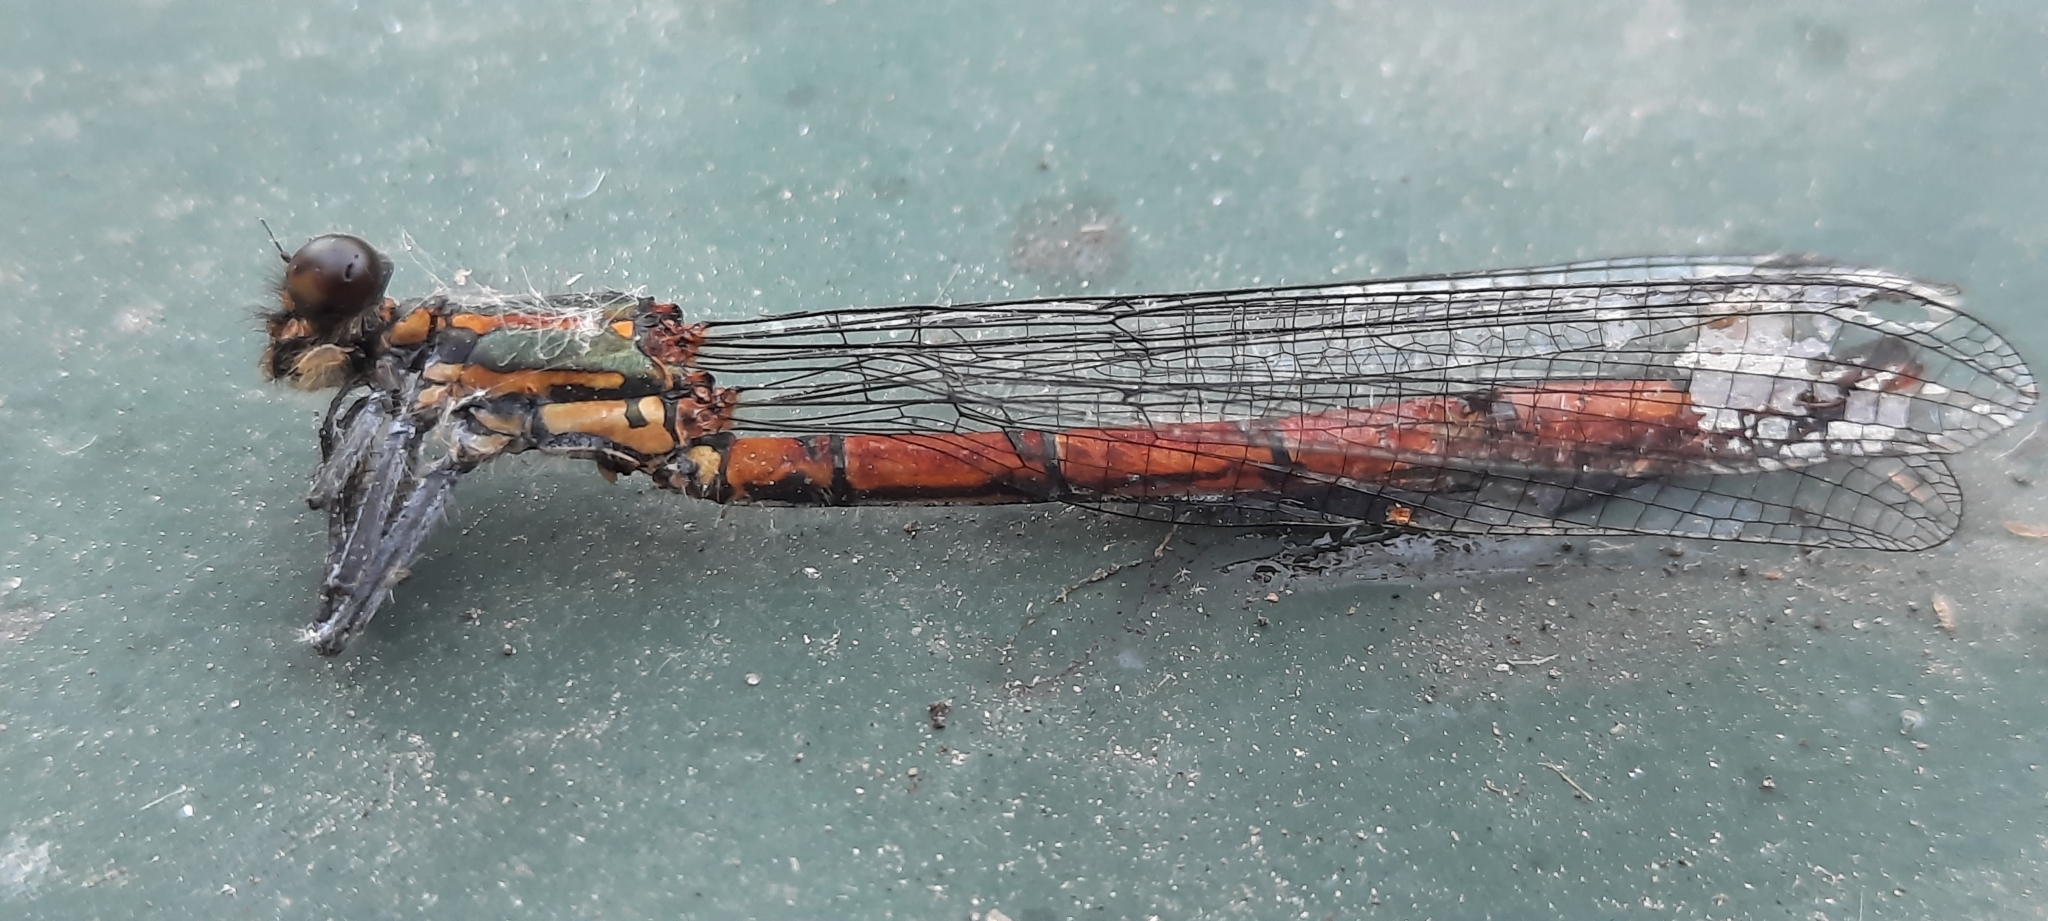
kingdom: Animalia
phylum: Arthropoda
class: Insecta
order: Odonata
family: Coenagrionidae
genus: Pyrrhosoma
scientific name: Pyrrhosoma nymphula
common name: Large red damsel
